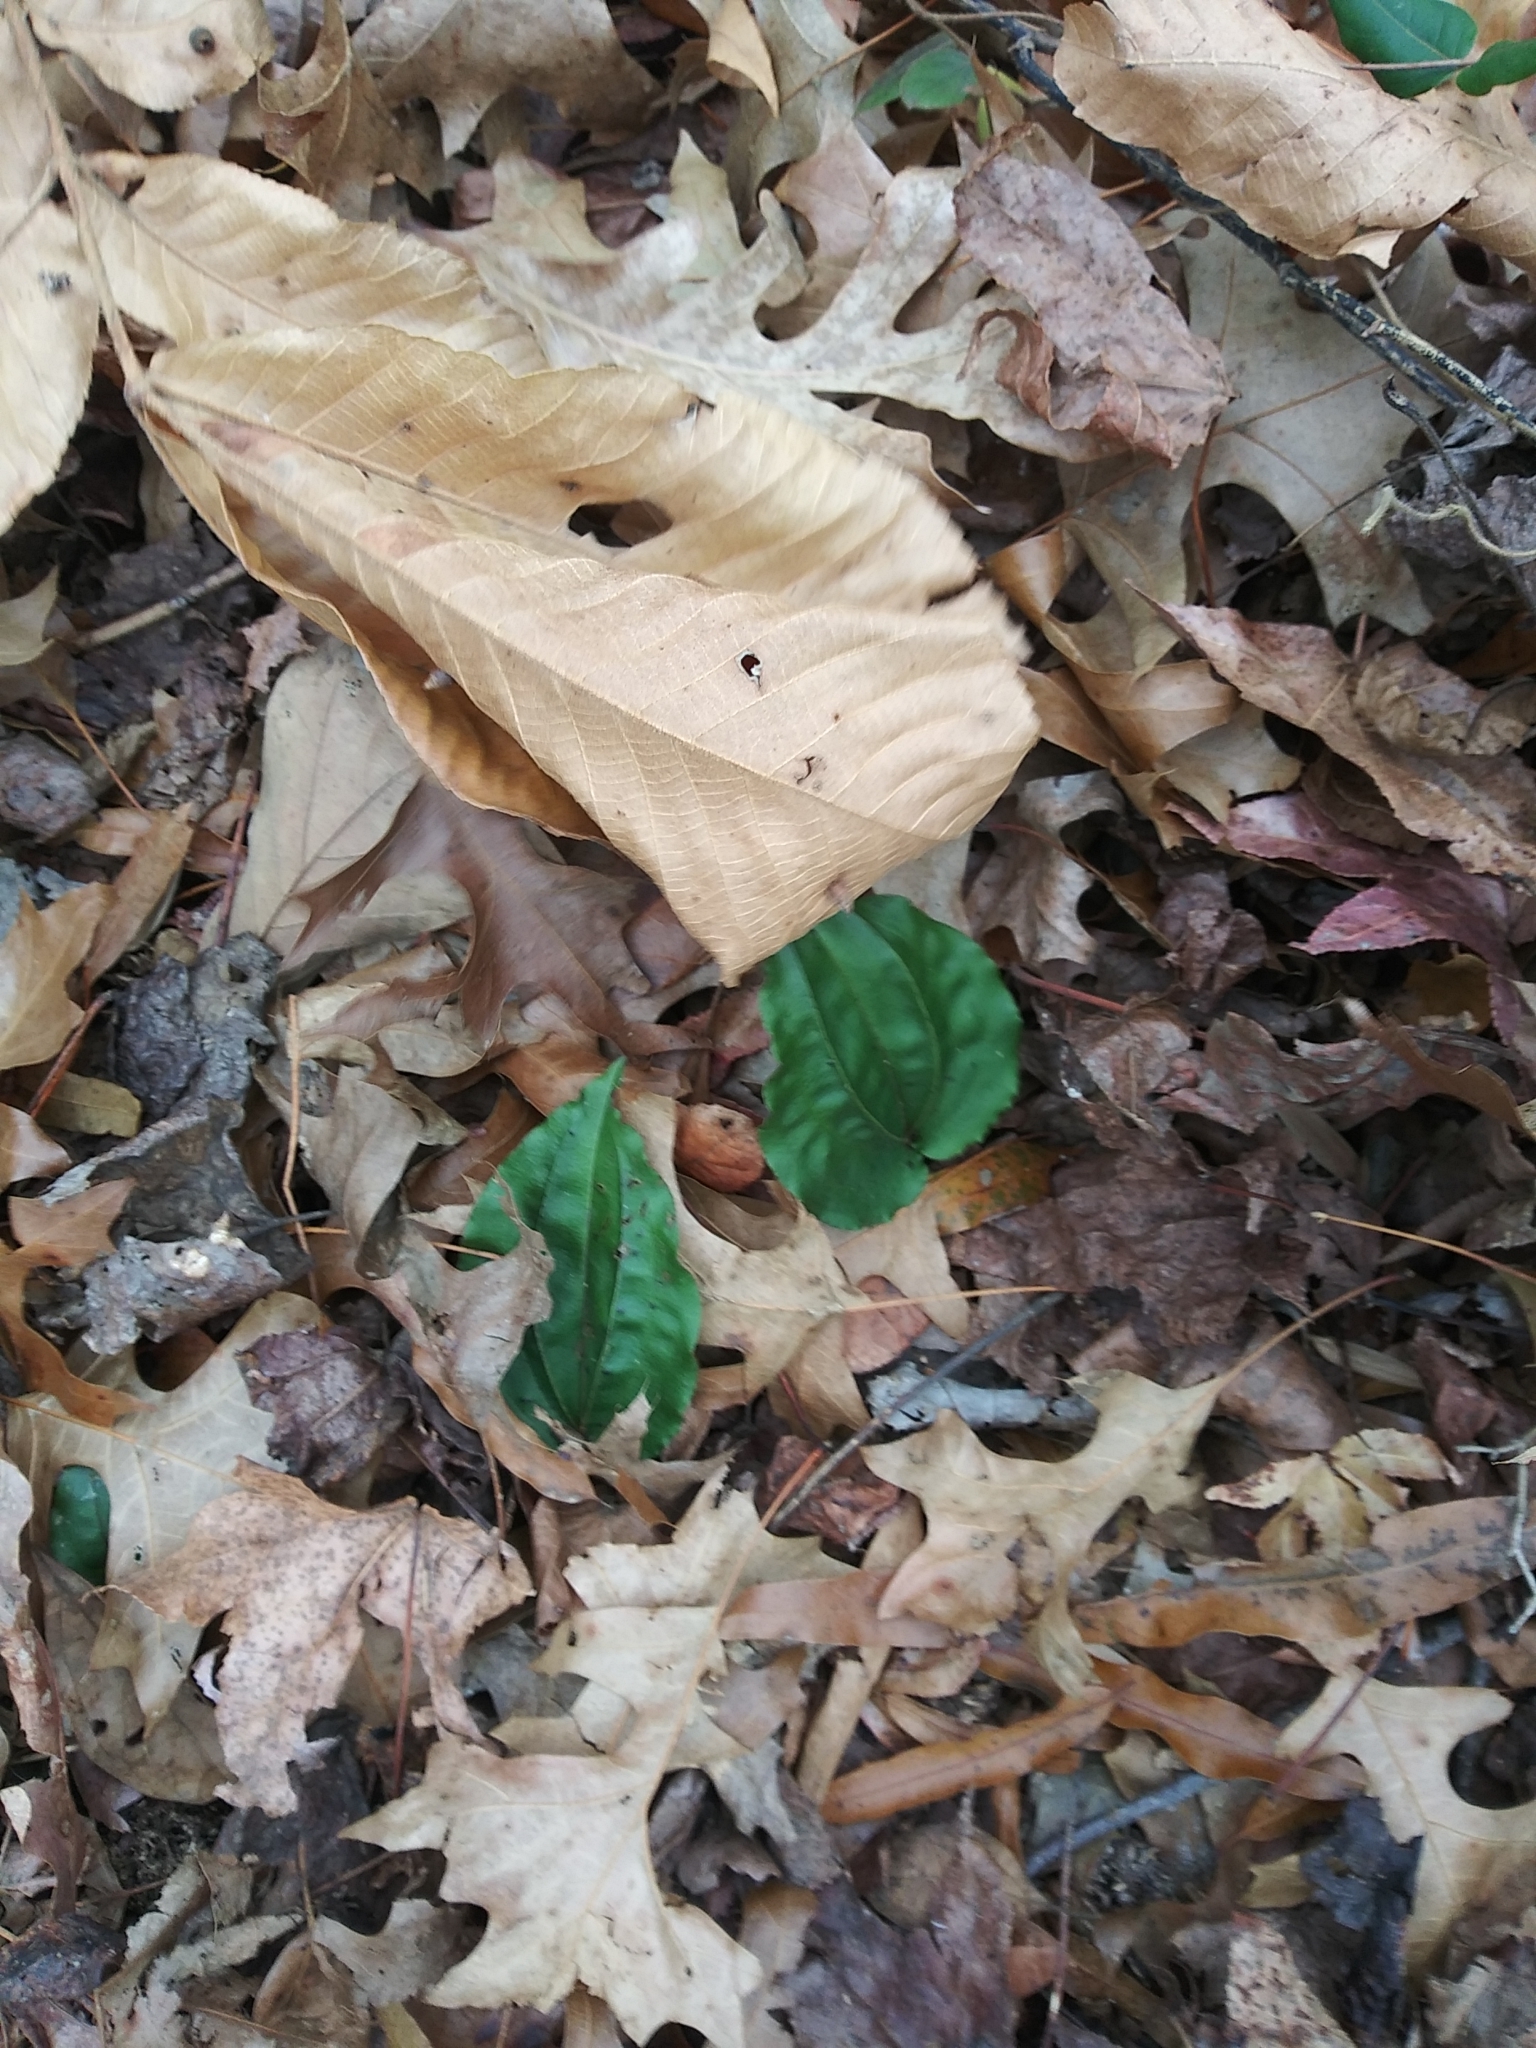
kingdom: Plantae
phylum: Tracheophyta
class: Liliopsida
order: Asparagales
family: Orchidaceae
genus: Tipularia
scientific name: Tipularia discolor
